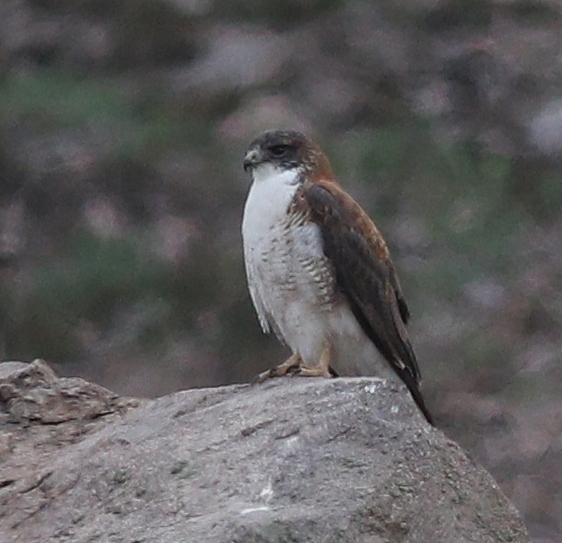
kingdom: Animalia
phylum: Chordata
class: Aves
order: Accipitriformes
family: Accipitridae
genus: Buteo
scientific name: Buteo polyosoma
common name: Variable hawk
